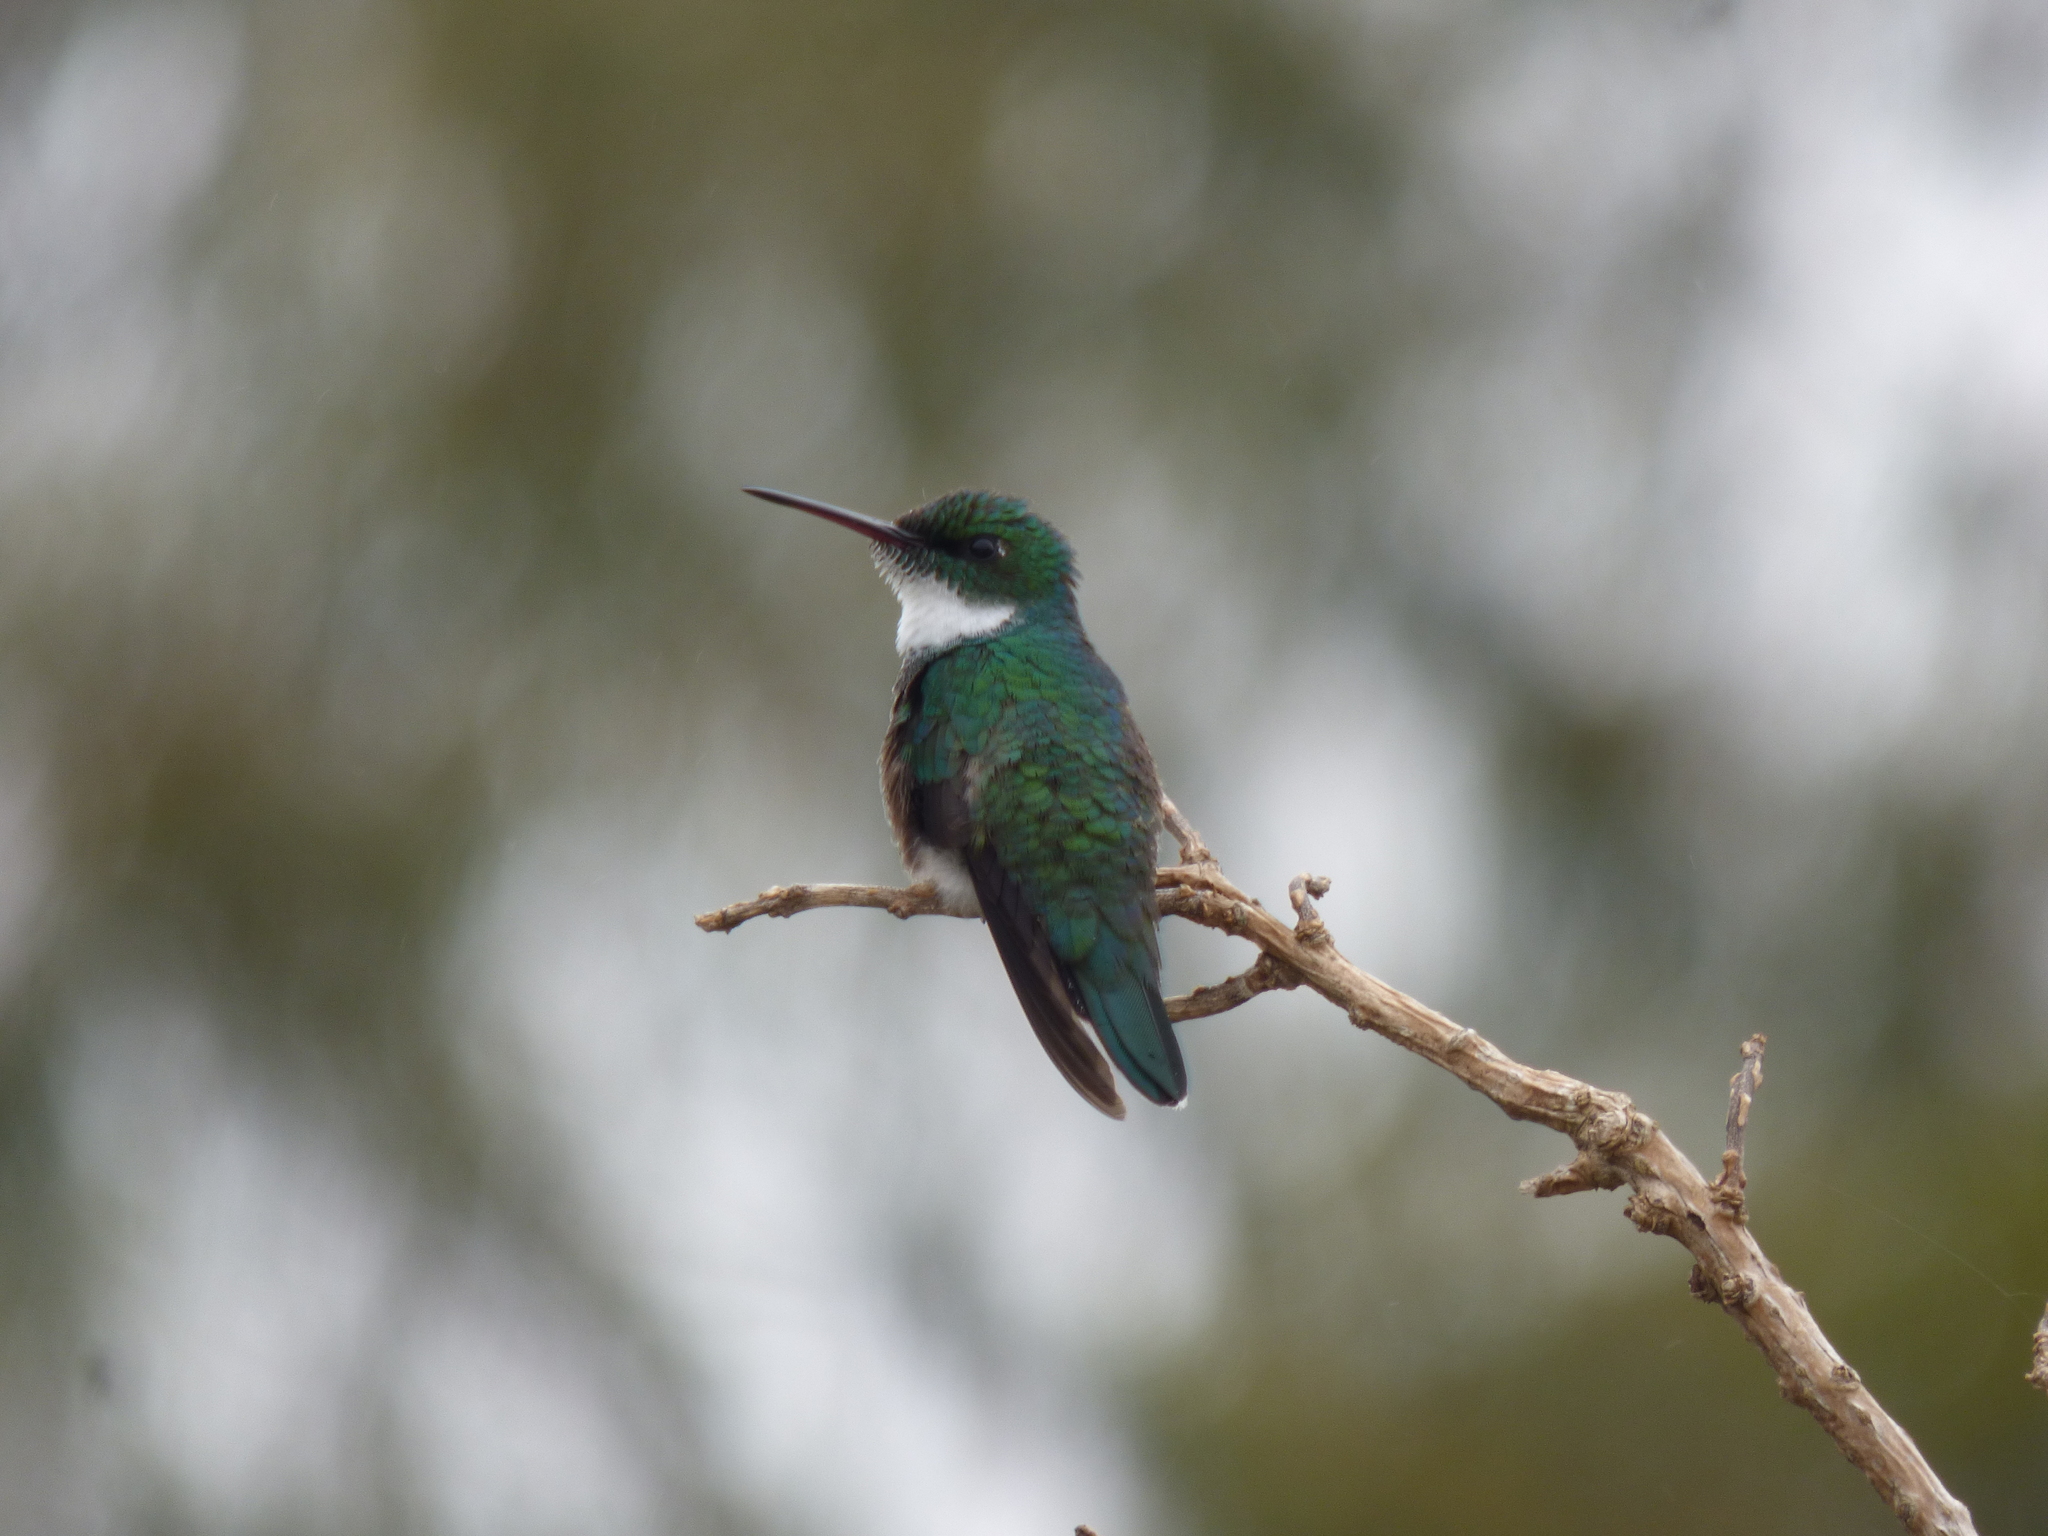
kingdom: Animalia
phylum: Chordata
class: Aves
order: Apodiformes
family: Trochilidae
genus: Leucochloris
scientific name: Leucochloris albicollis
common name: White-throated hummingbird
